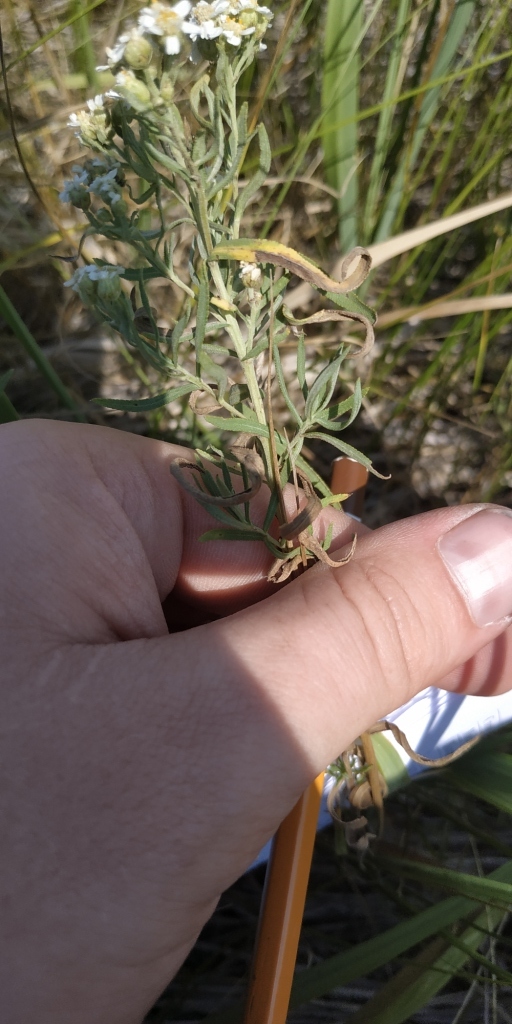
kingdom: Plantae
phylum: Tracheophyta
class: Magnoliopsida
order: Asterales
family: Asteraceae
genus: Achillea
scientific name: Achillea salicifolia
